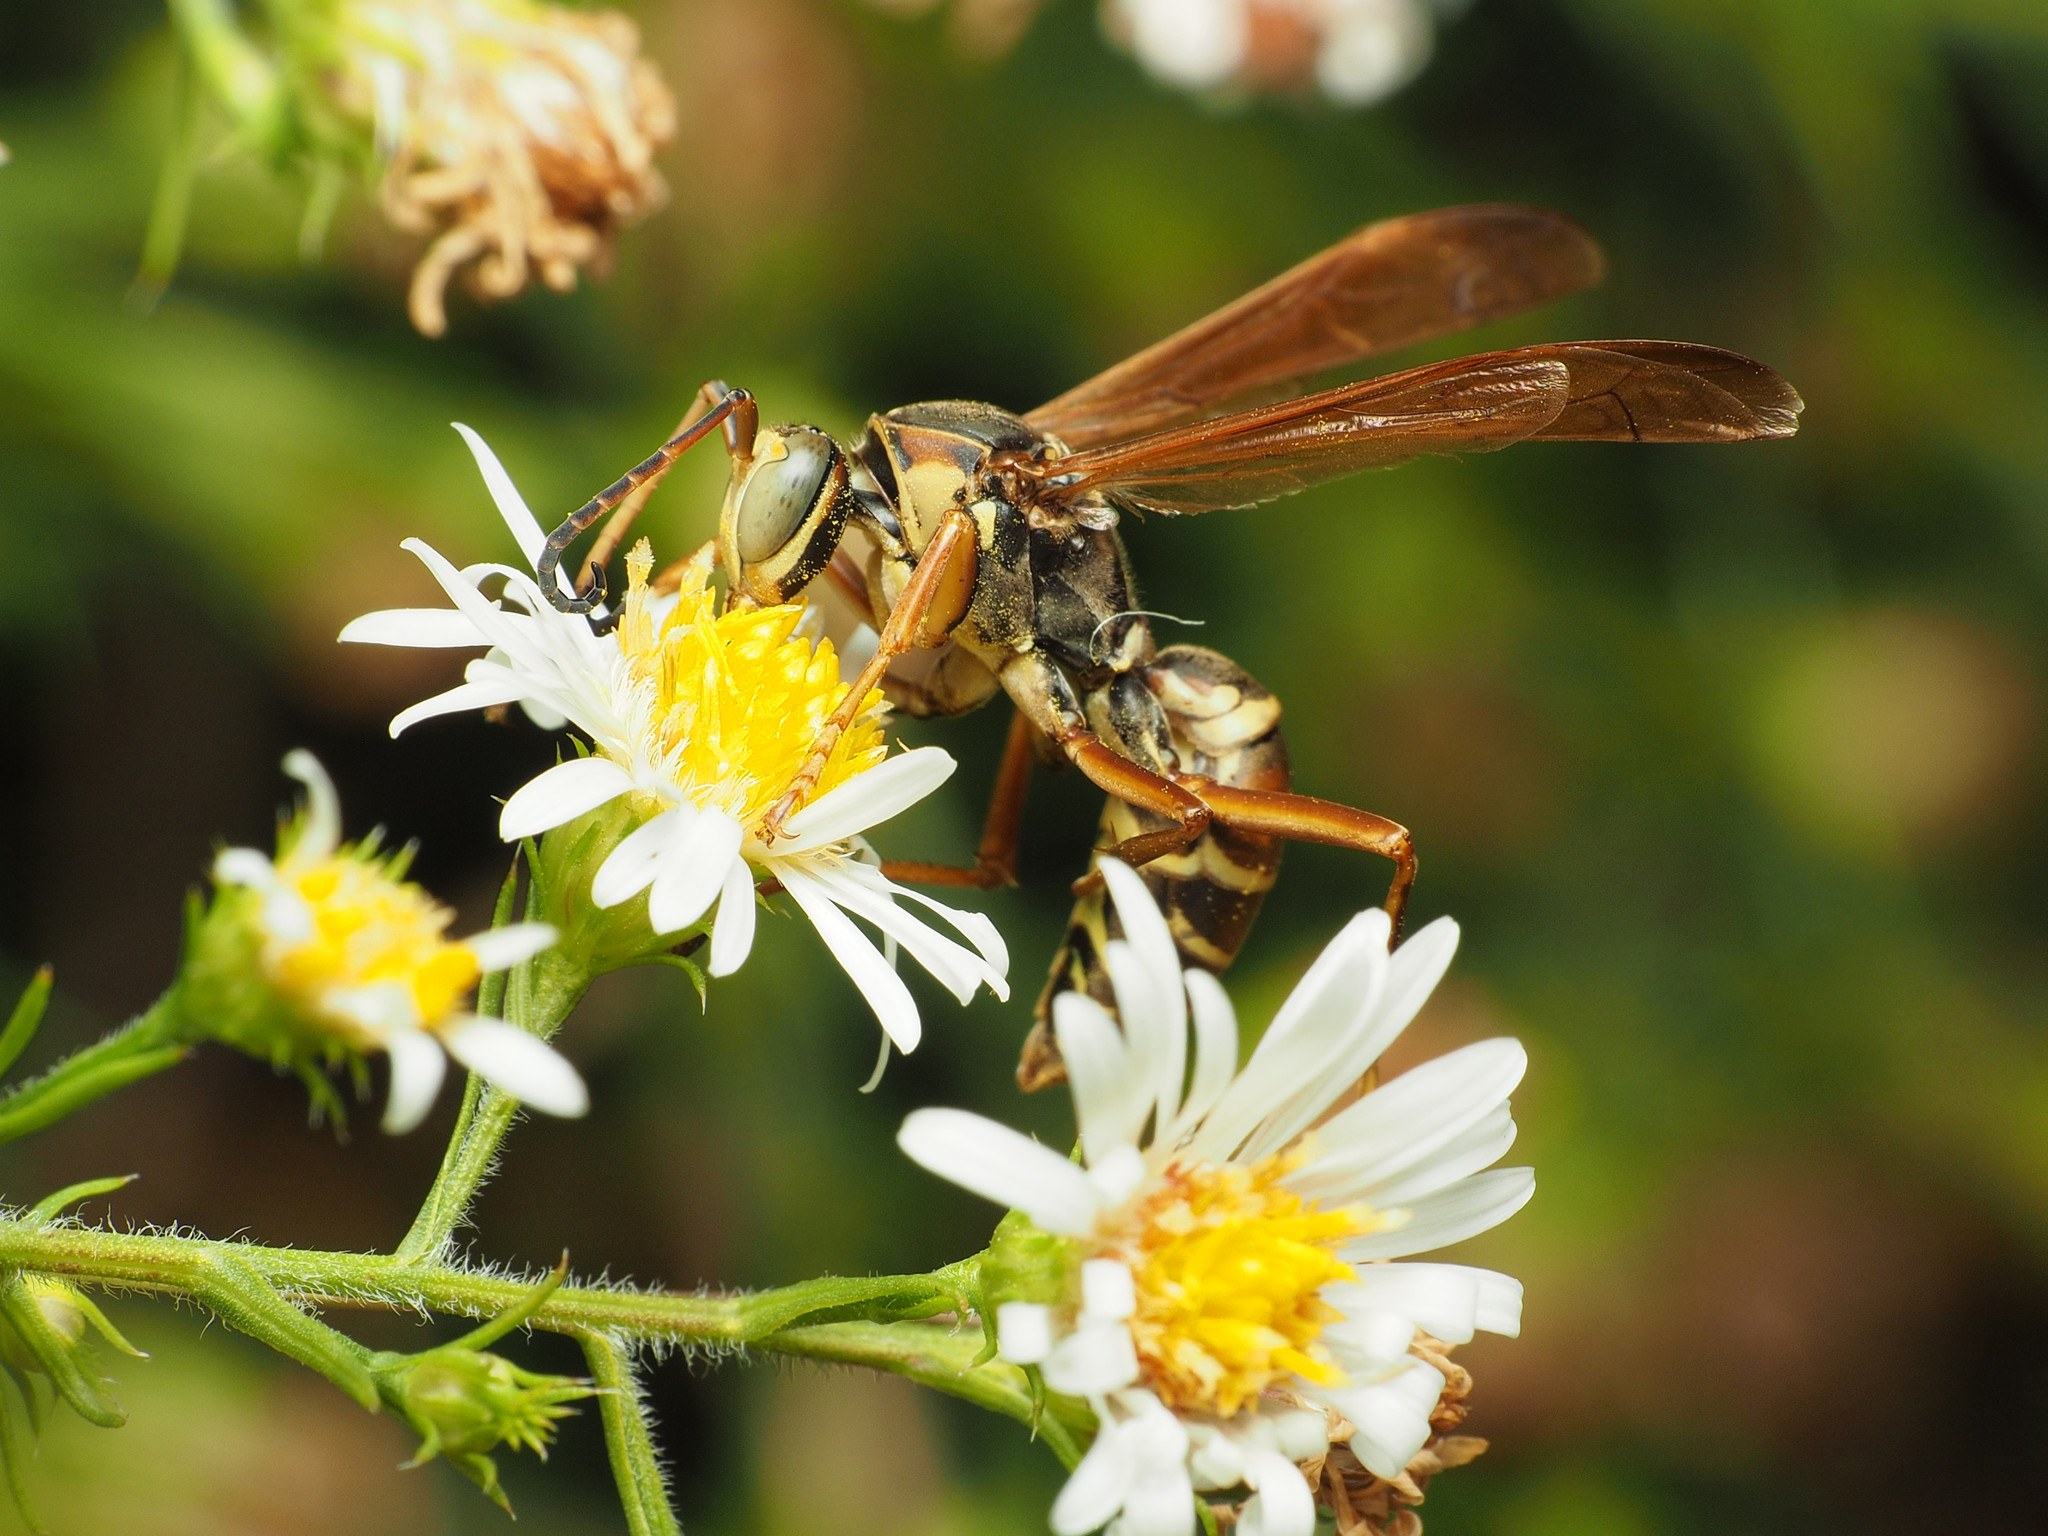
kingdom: Animalia
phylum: Arthropoda
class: Insecta
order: Hymenoptera
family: Eumenidae
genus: Polistes
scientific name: Polistes fuscatus
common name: Dark paper wasp
